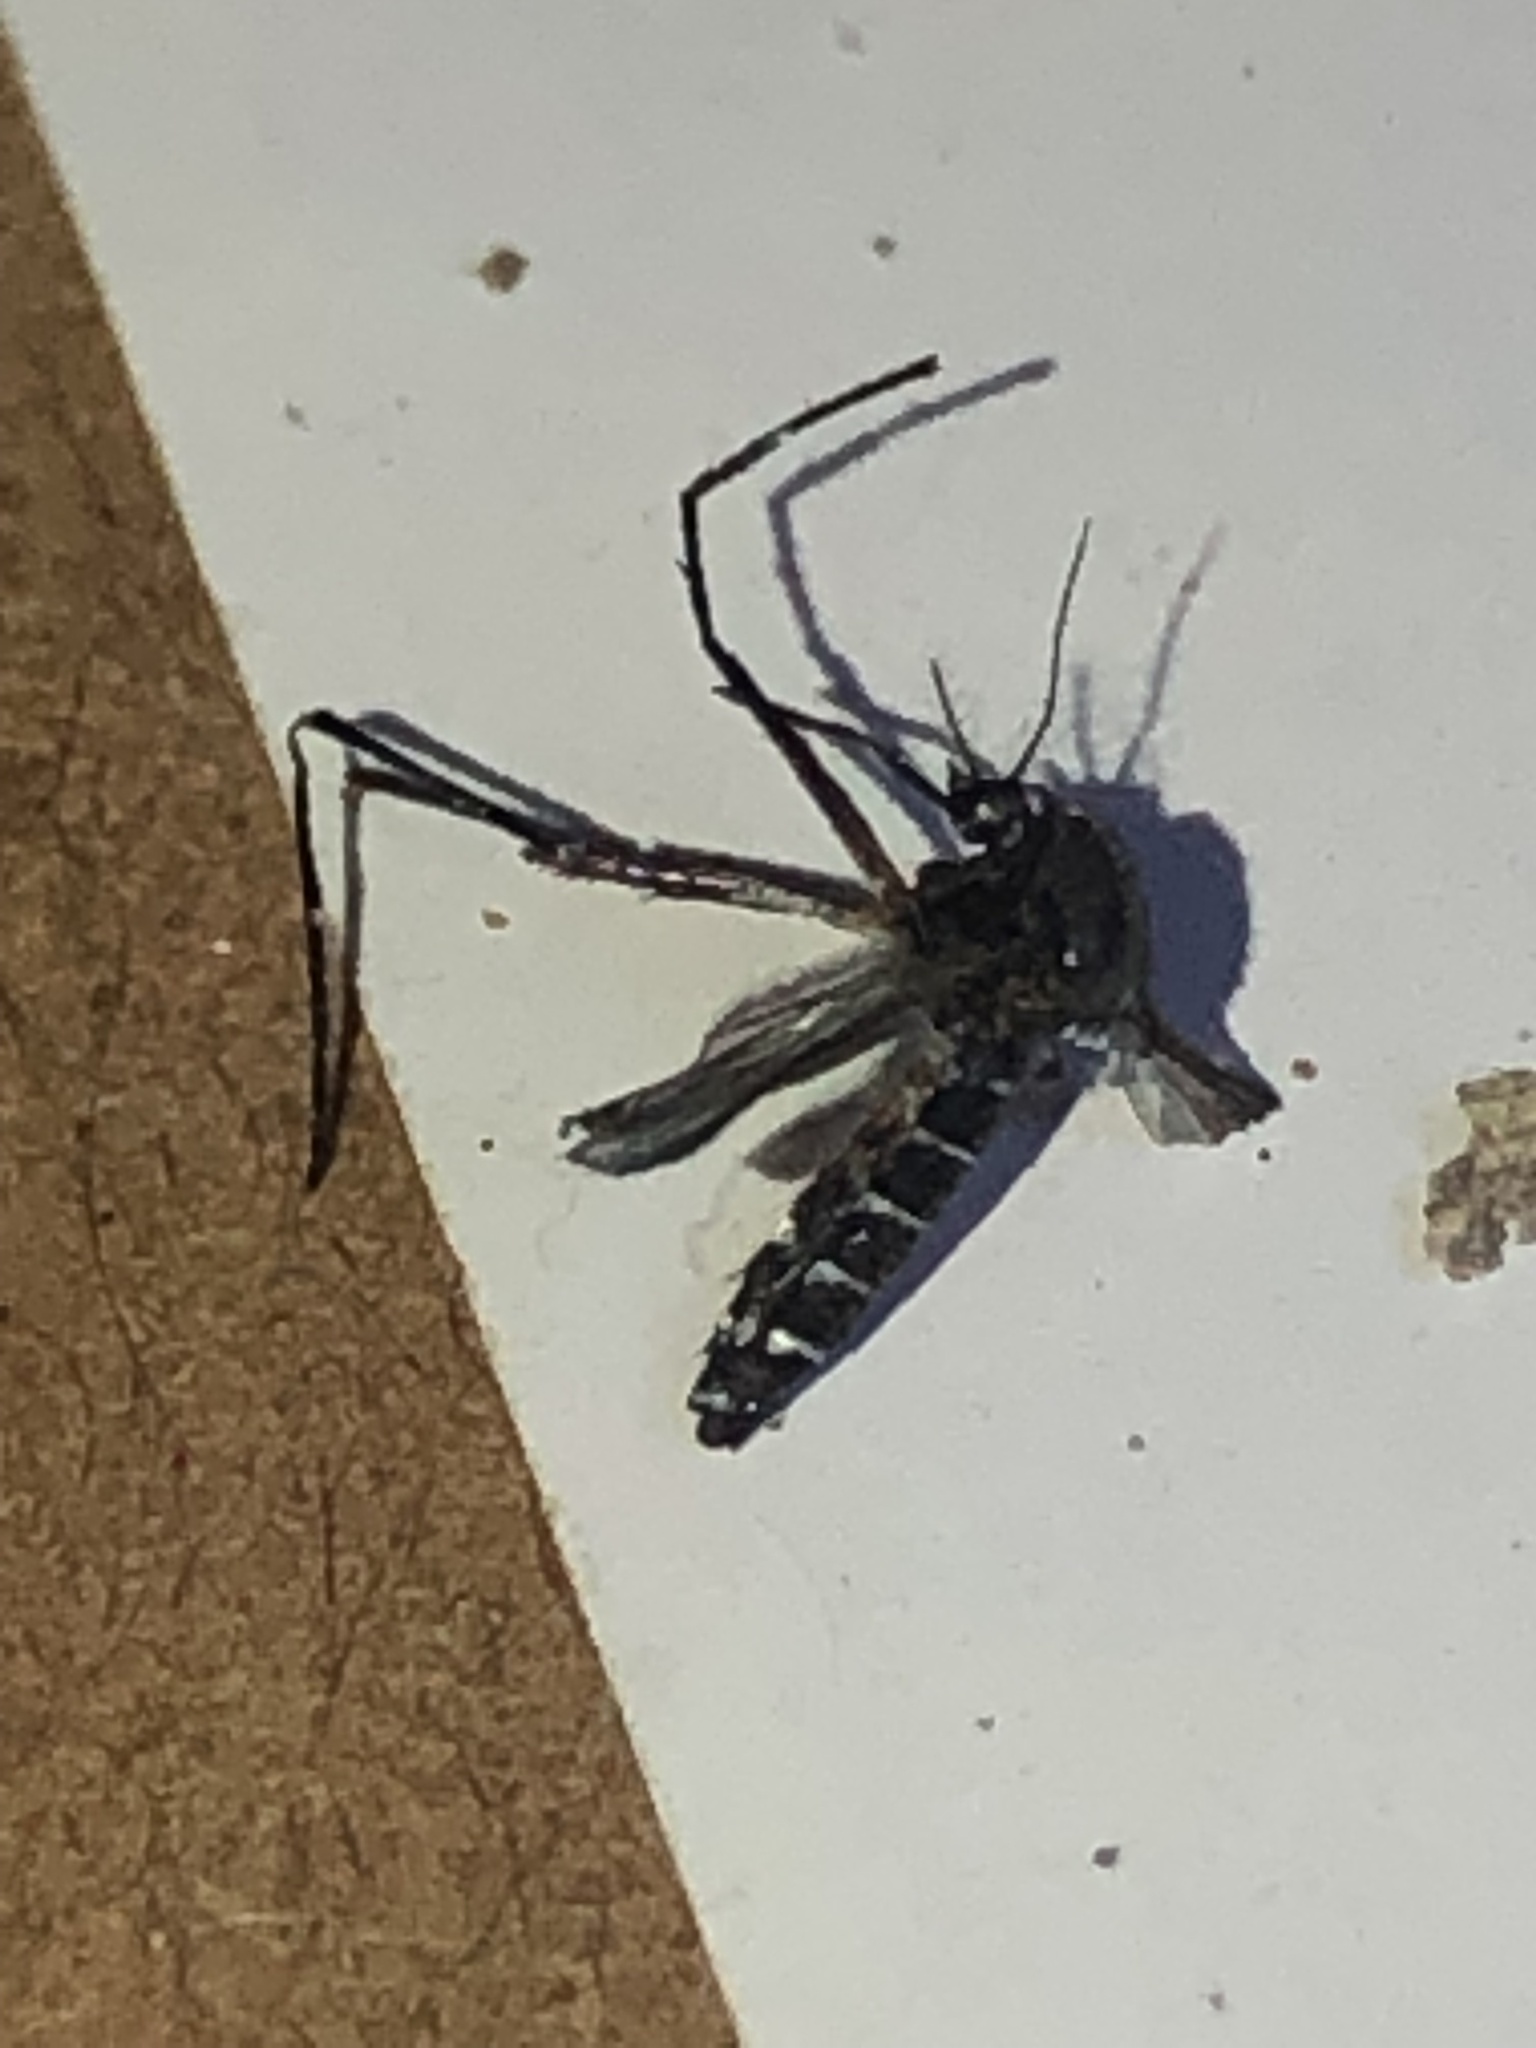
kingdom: Animalia
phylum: Arthropoda
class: Insecta
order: Diptera
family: Culicidae
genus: Aedes
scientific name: Aedes albopictus
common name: Tiger mosquito
